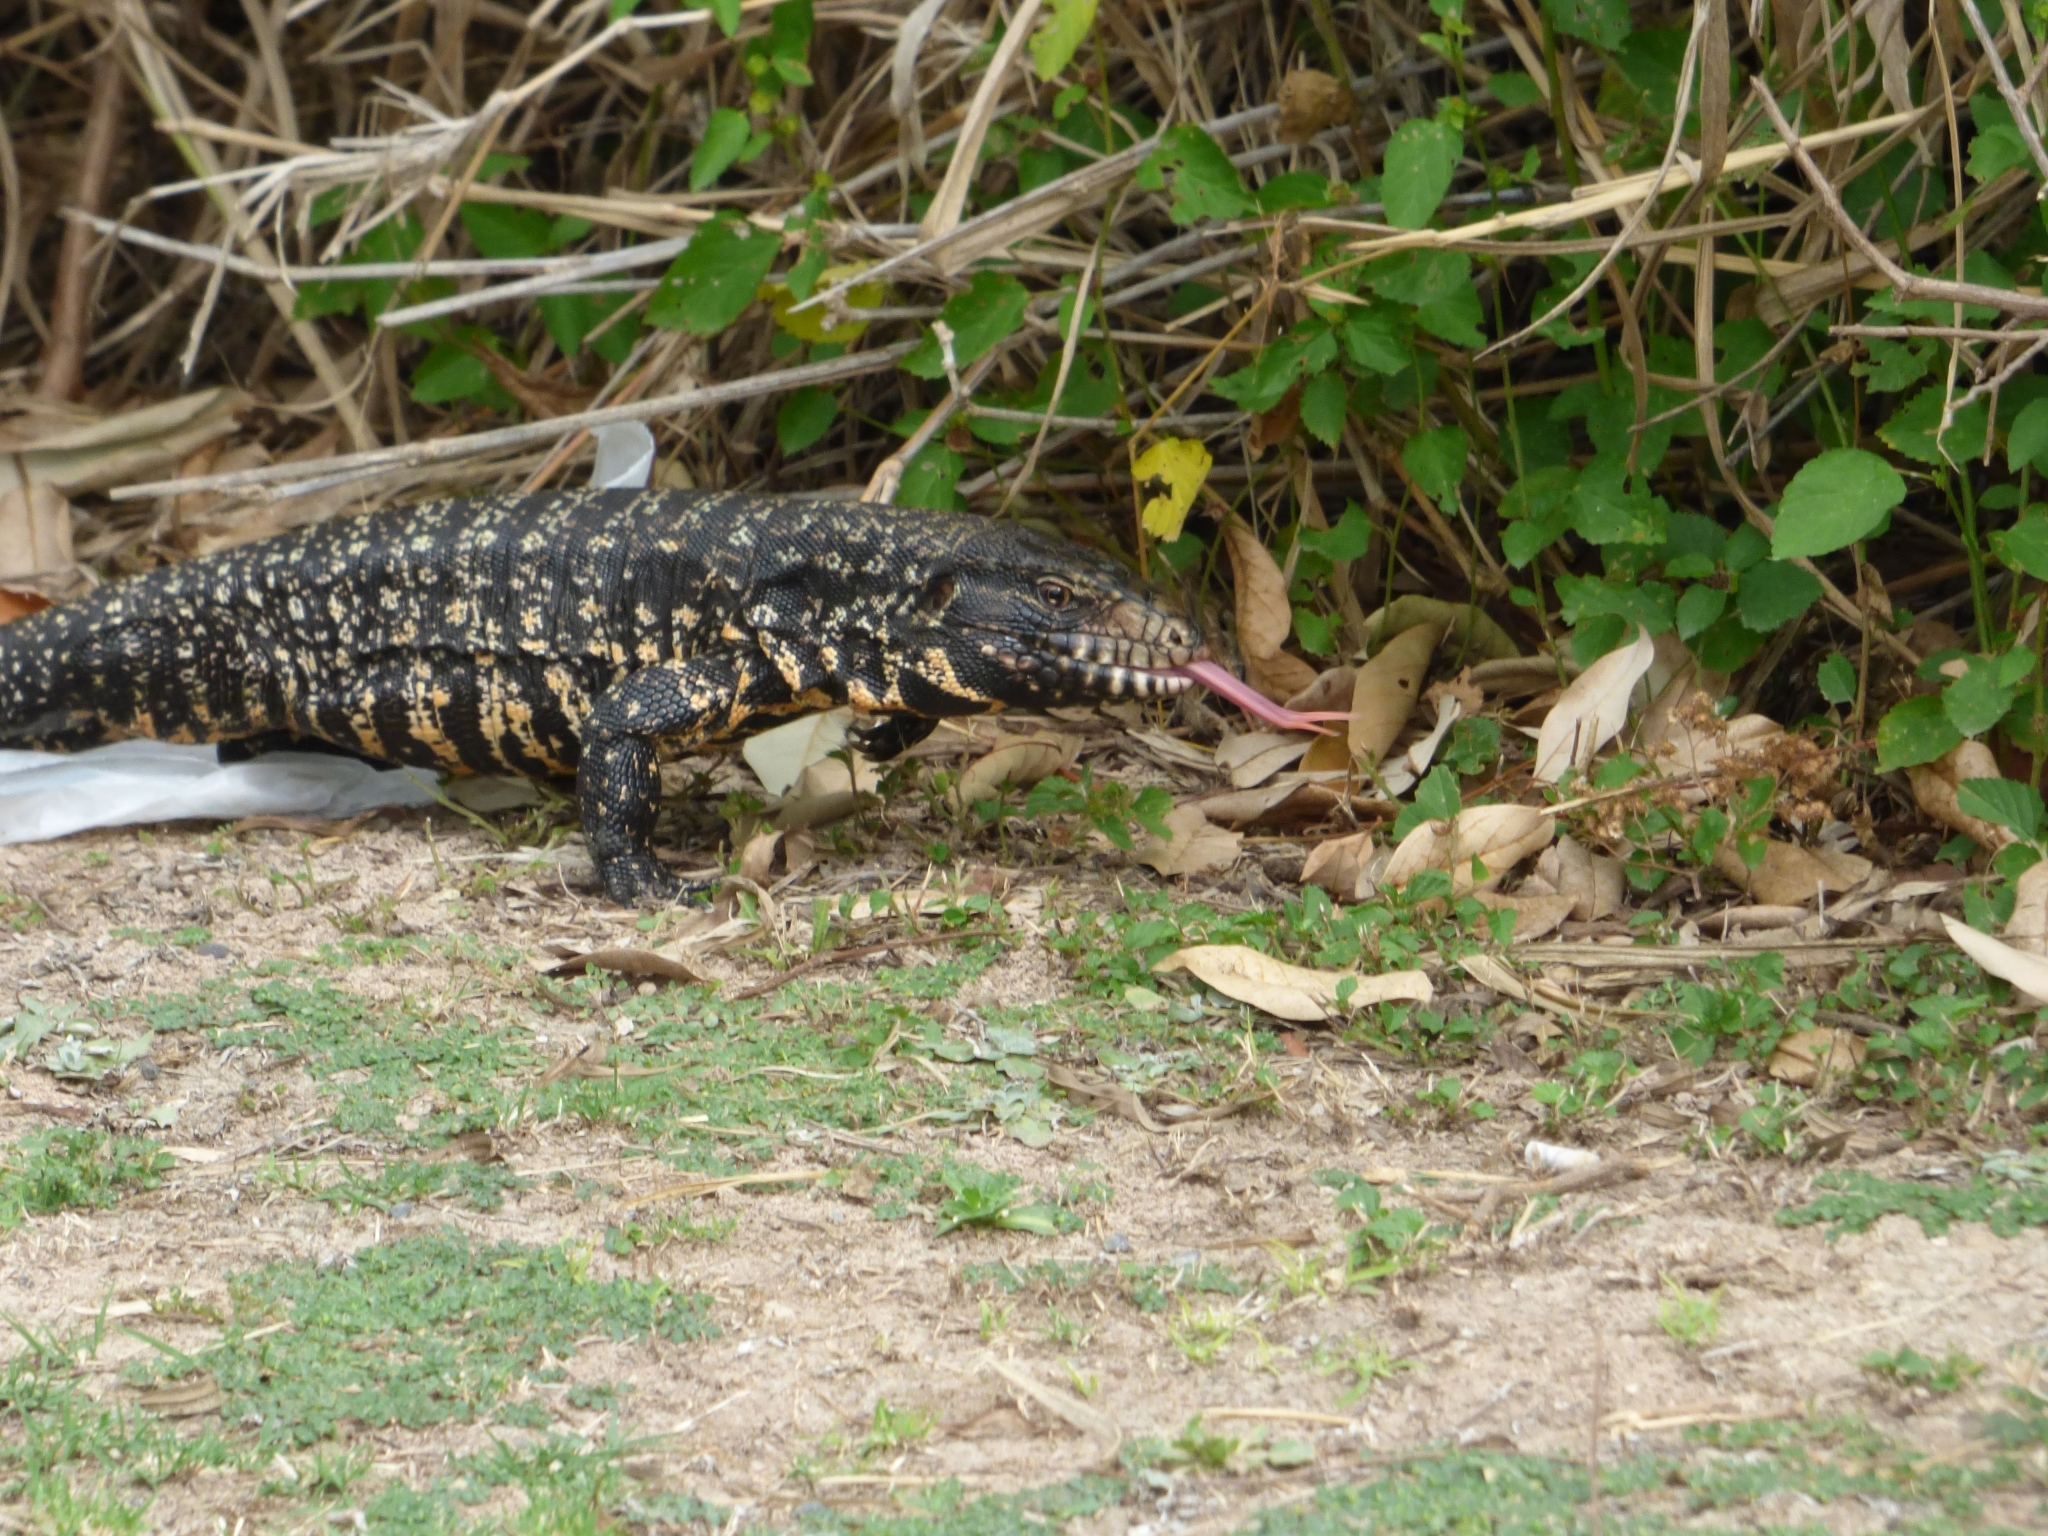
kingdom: Animalia
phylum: Chordata
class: Squamata
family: Teiidae
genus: Salvator
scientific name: Salvator merianae
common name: Argentine black and white tegu
